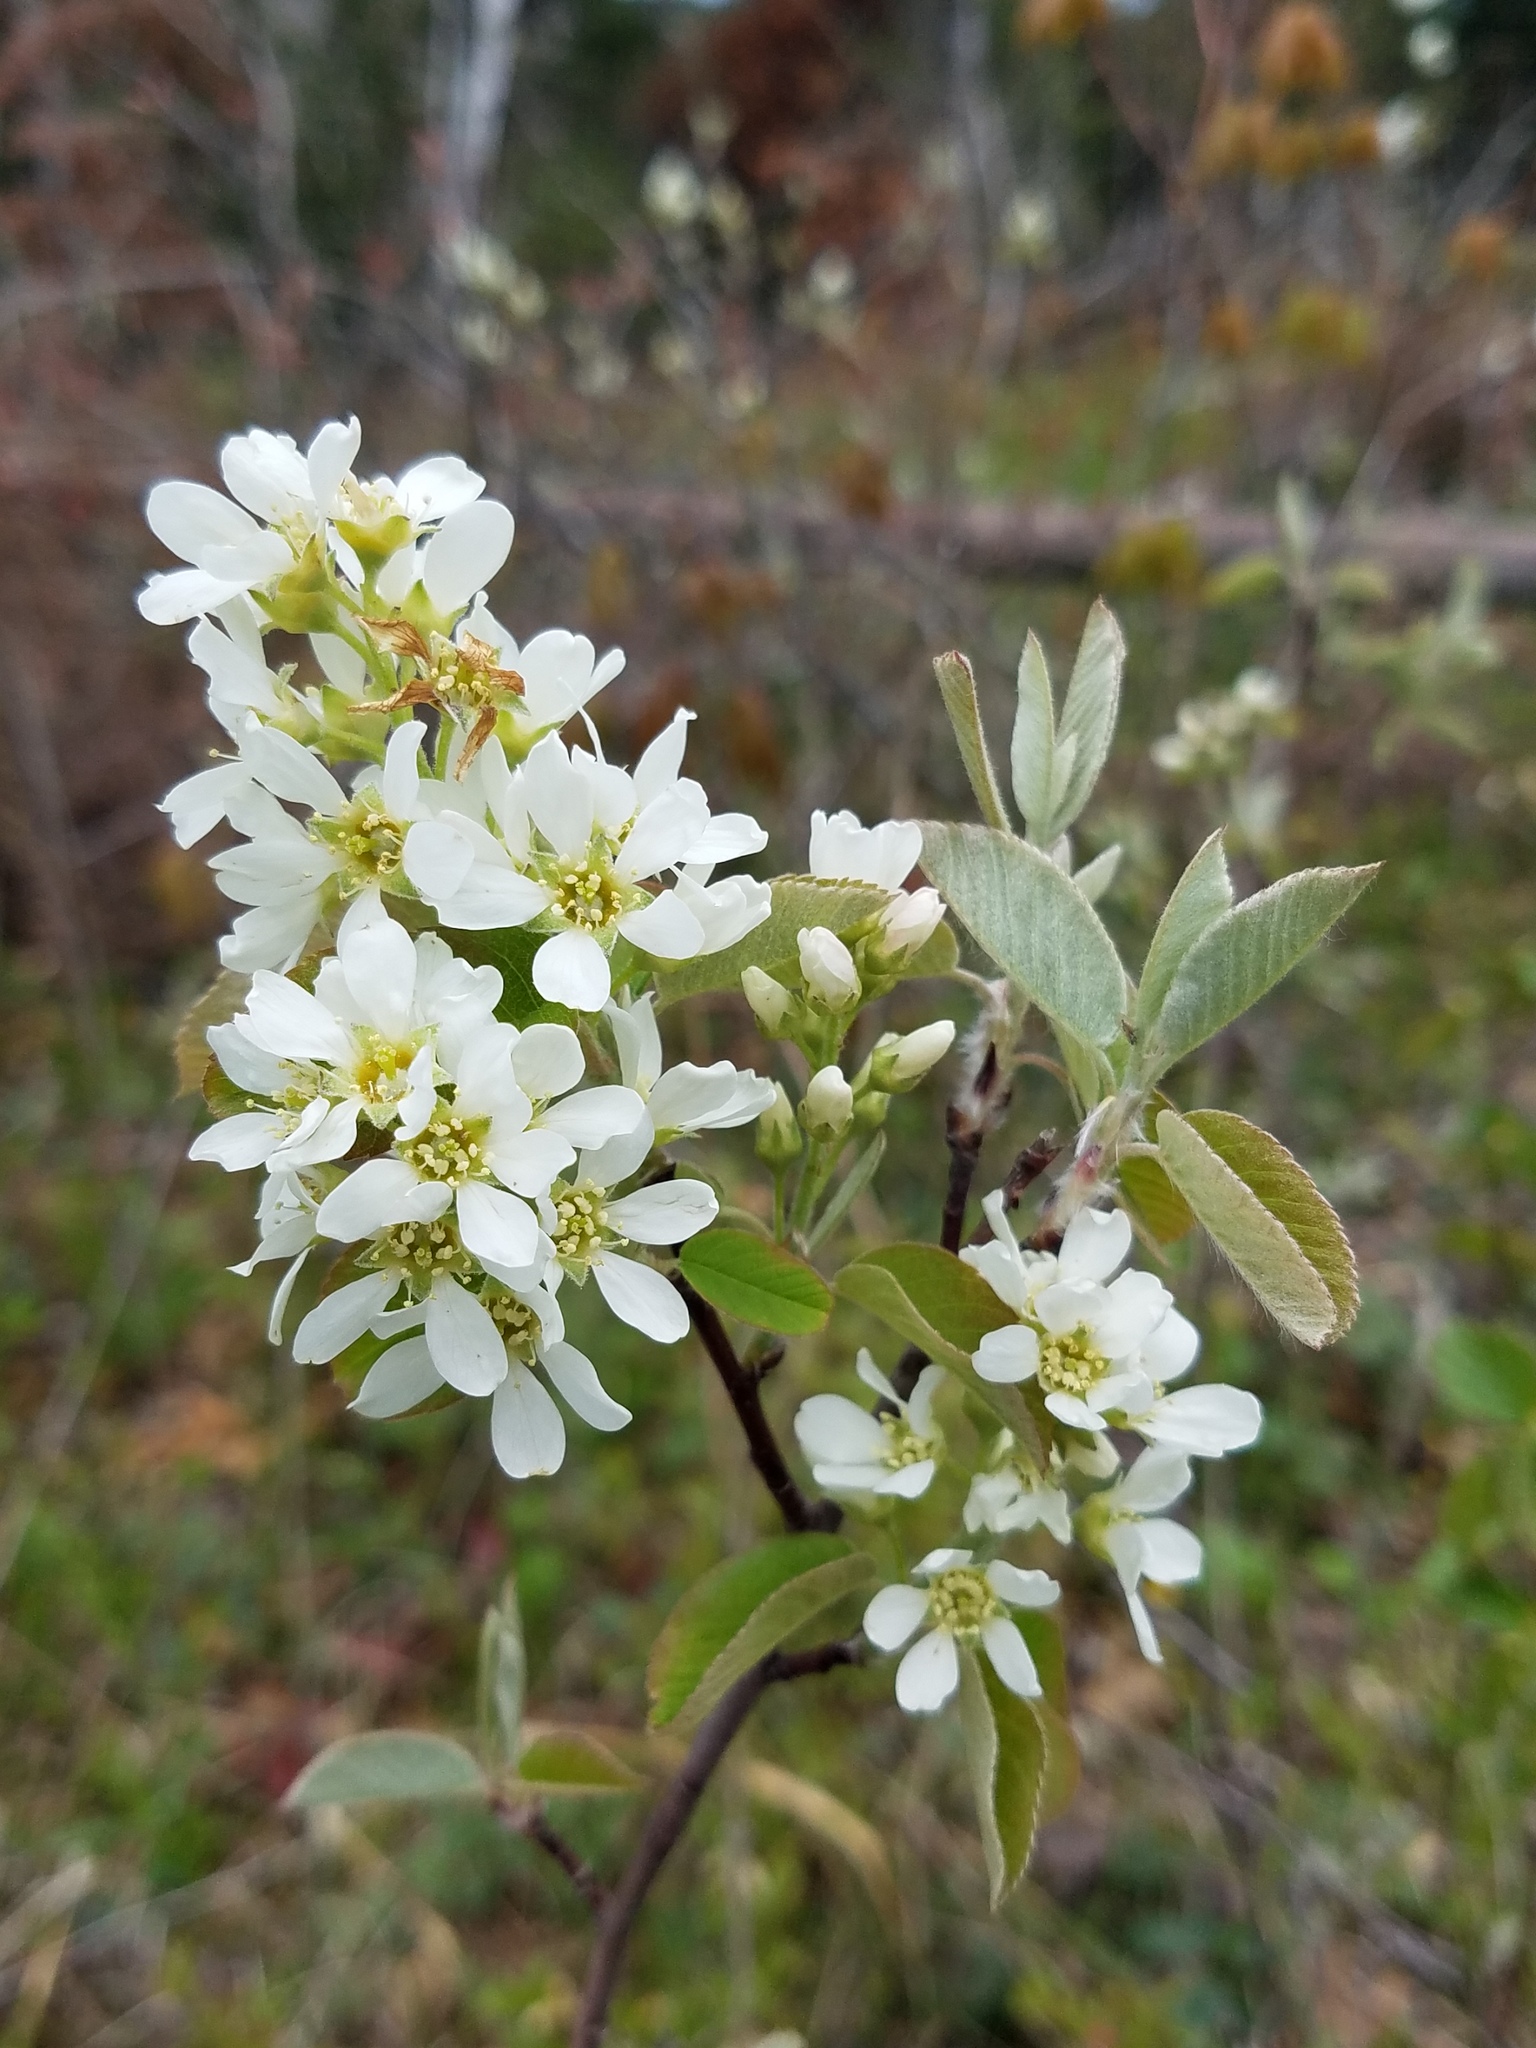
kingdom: Plantae
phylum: Tracheophyta
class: Magnoliopsida
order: Rosales
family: Rosaceae
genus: Amelanchier
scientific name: Amelanchier
